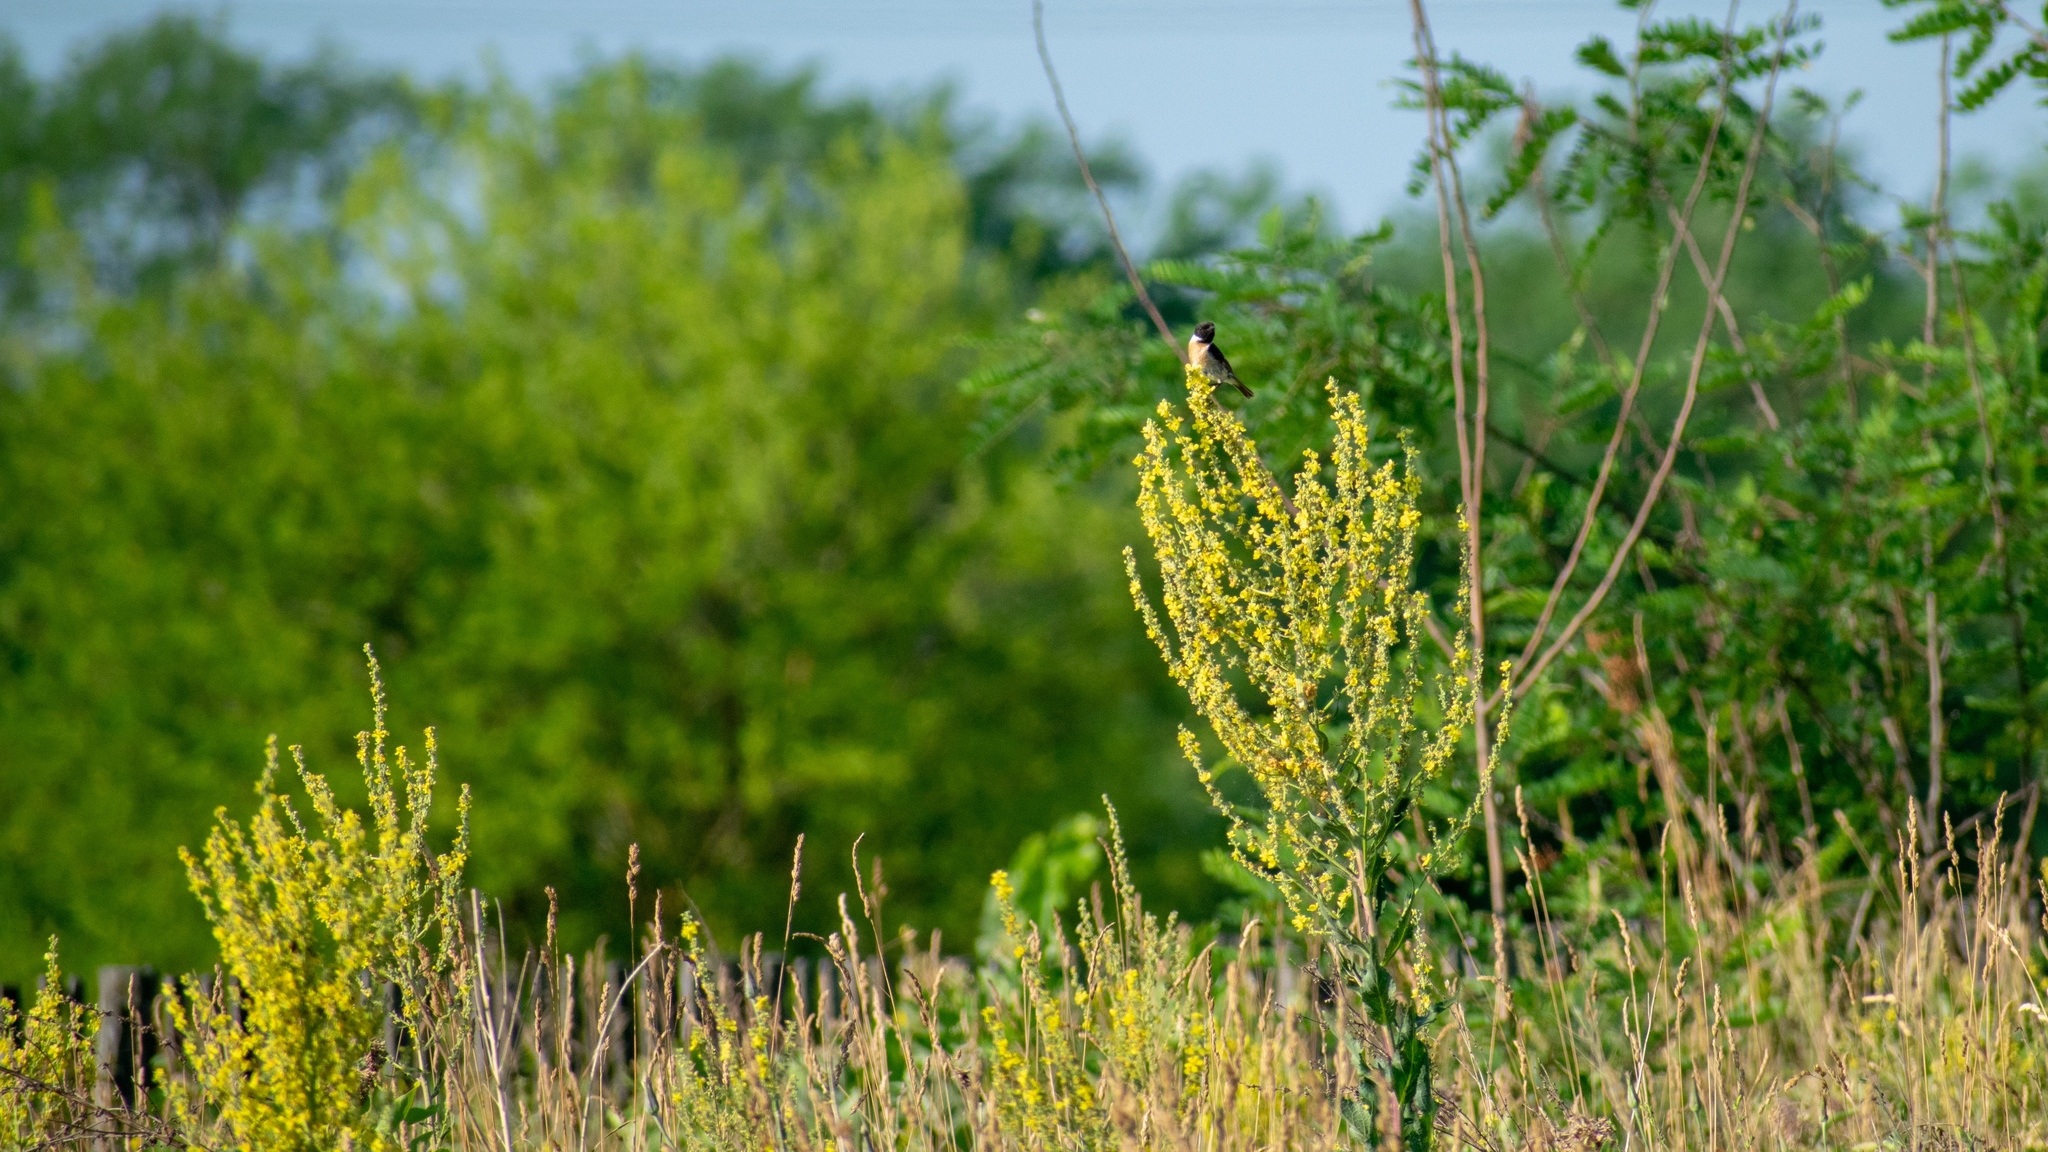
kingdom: Plantae
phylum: Tracheophyta
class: Magnoliopsida
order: Lamiales
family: Scrophulariaceae
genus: Verbascum
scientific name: Verbascum lychnitis
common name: White mullein
